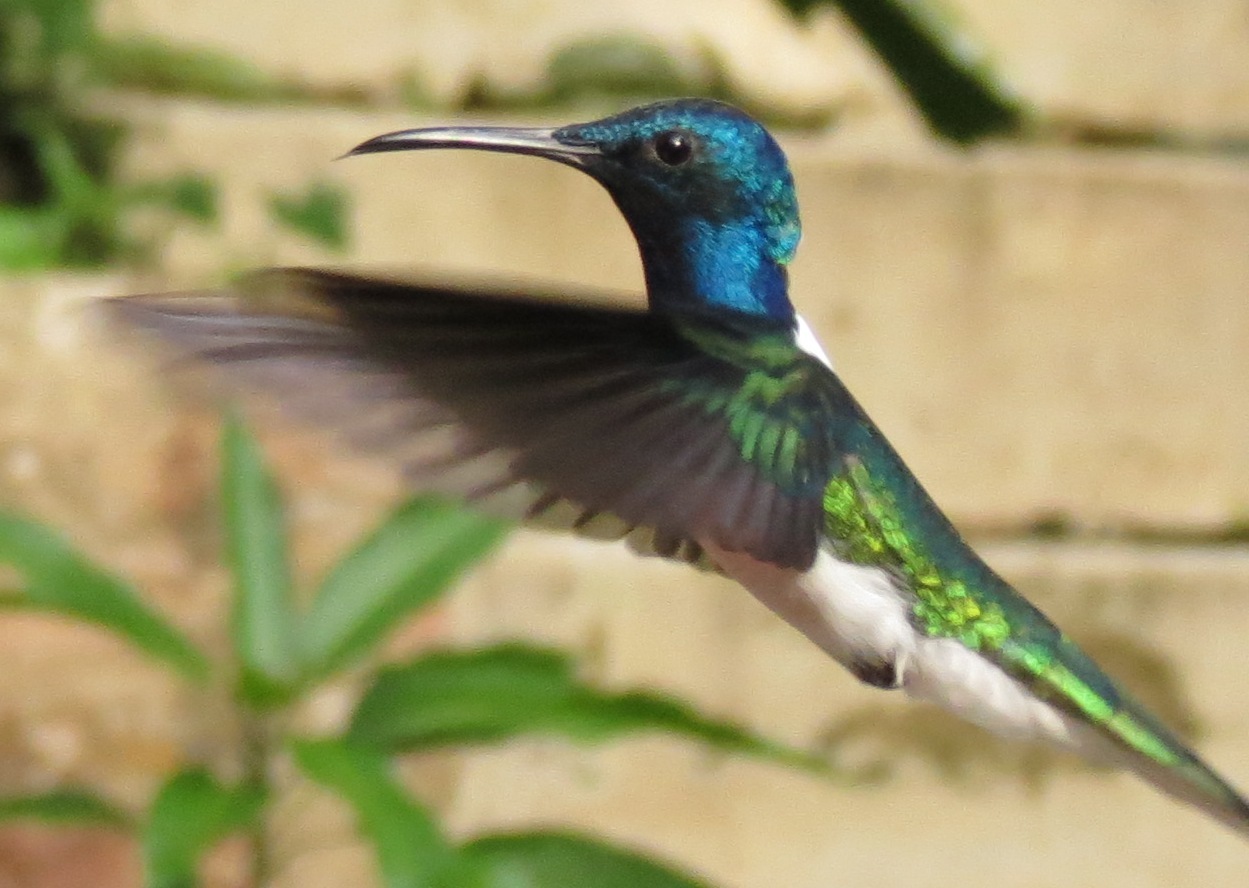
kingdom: Animalia
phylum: Chordata
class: Aves
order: Apodiformes
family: Trochilidae
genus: Florisuga
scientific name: Florisuga mellivora
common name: White-necked jacobin
